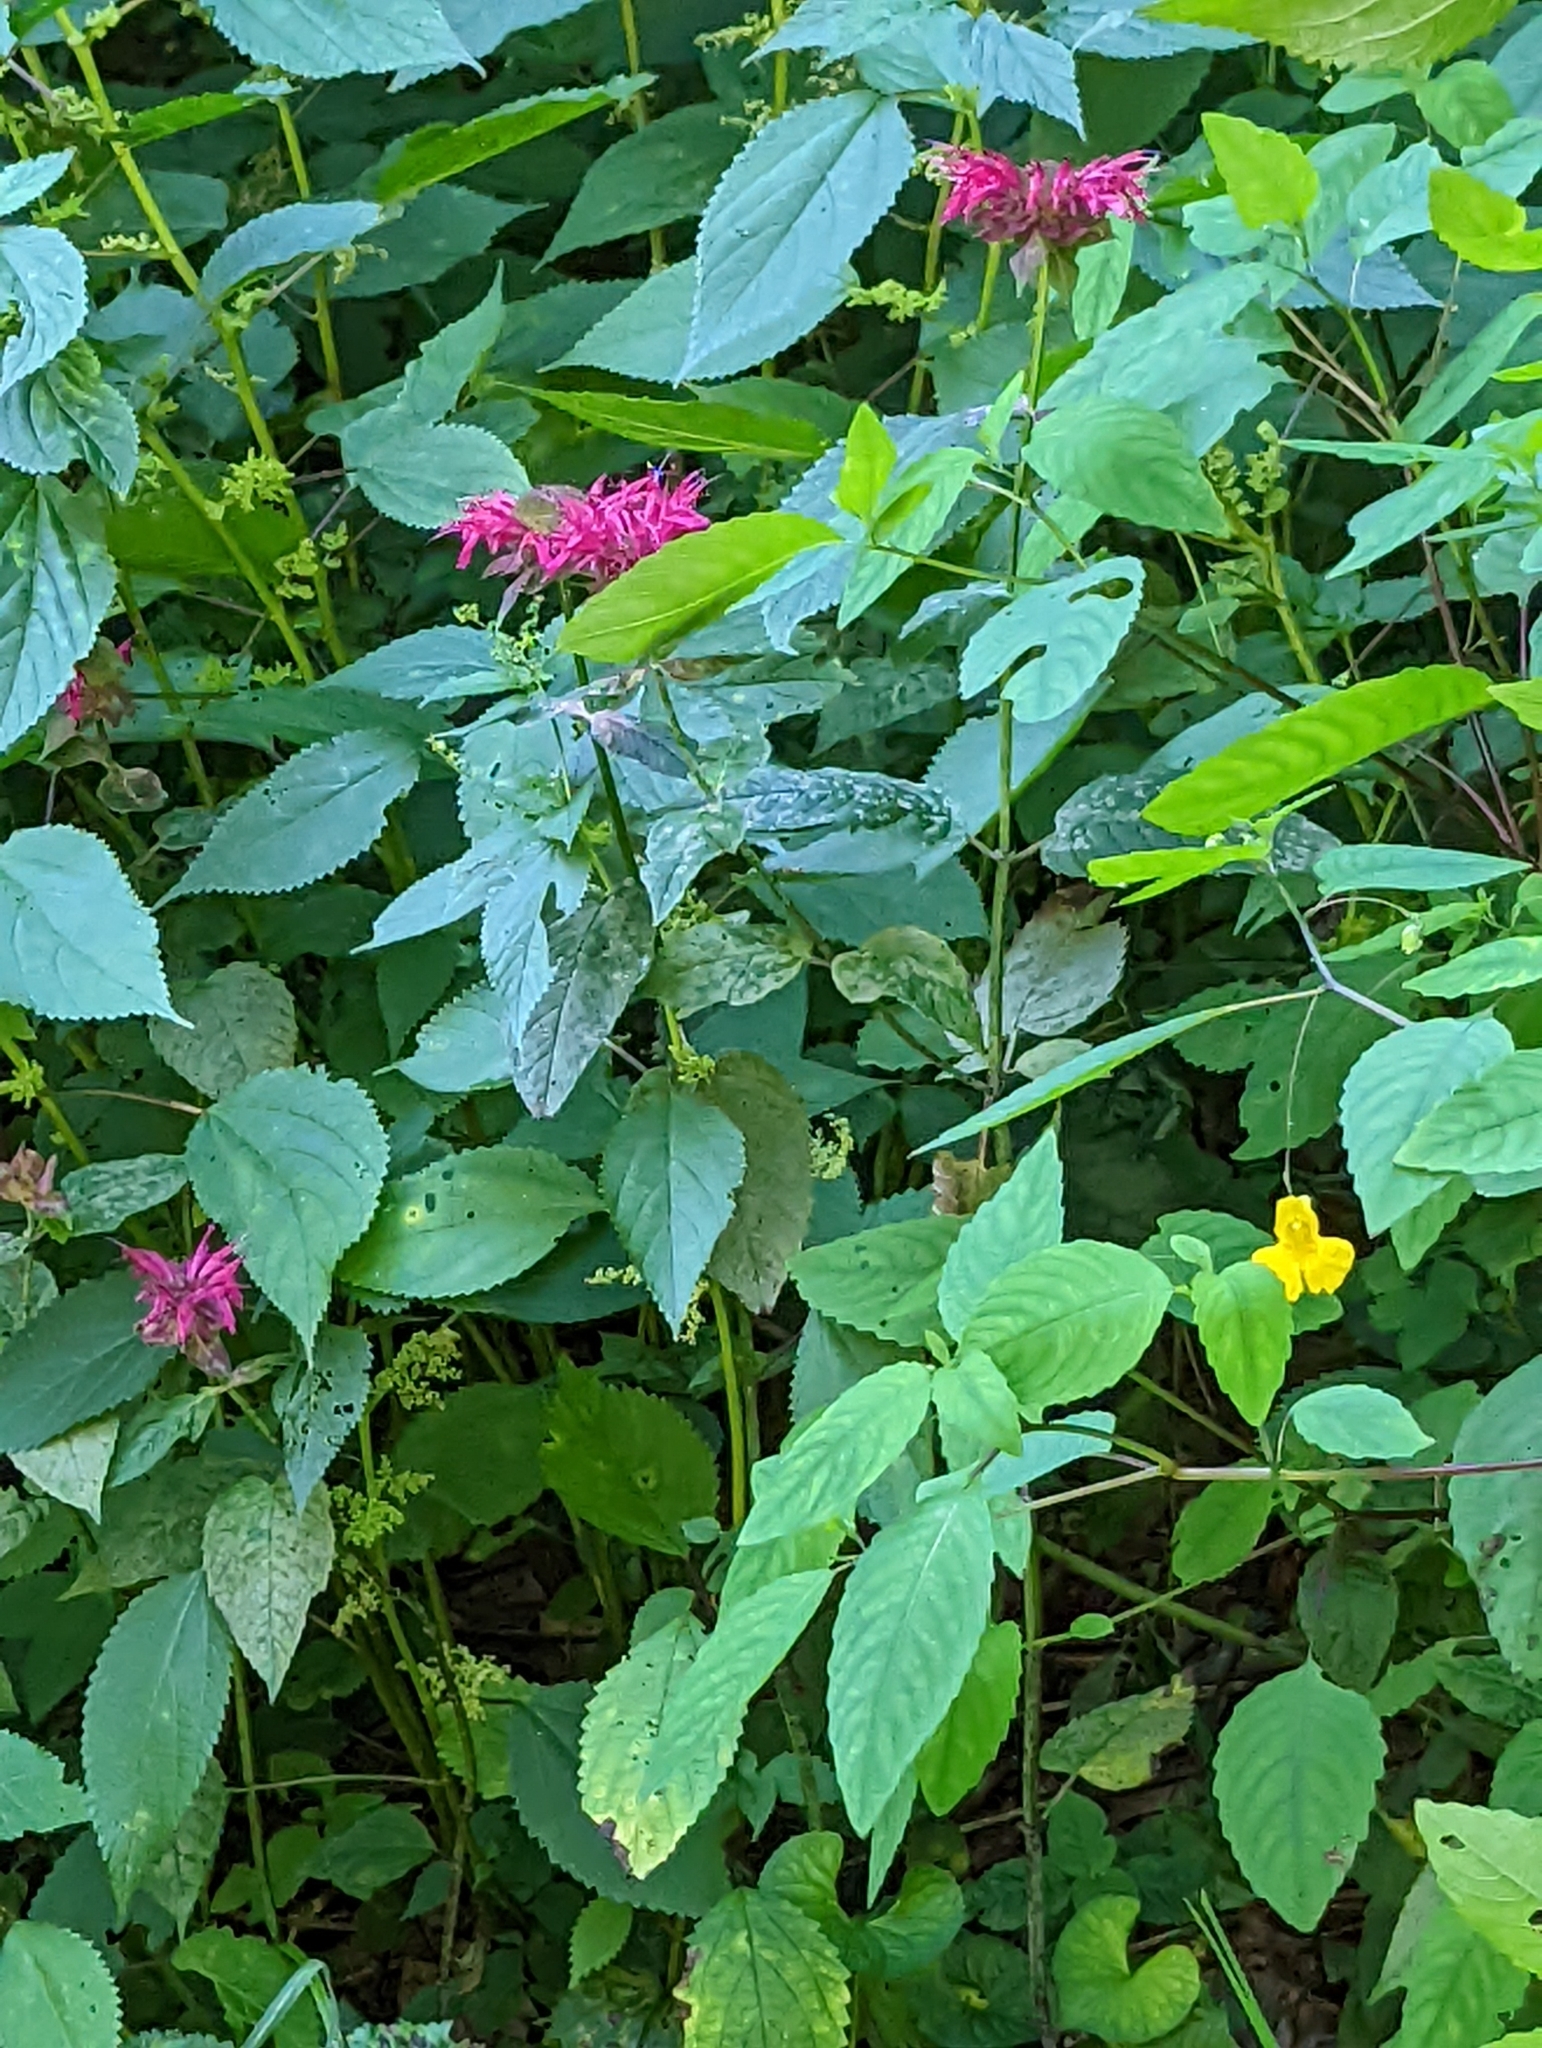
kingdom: Plantae
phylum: Tracheophyta
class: Magnoliopsida
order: Lamiales
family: Lamiaceae
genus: Monarda
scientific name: Monarda didyma
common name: Beebalm
